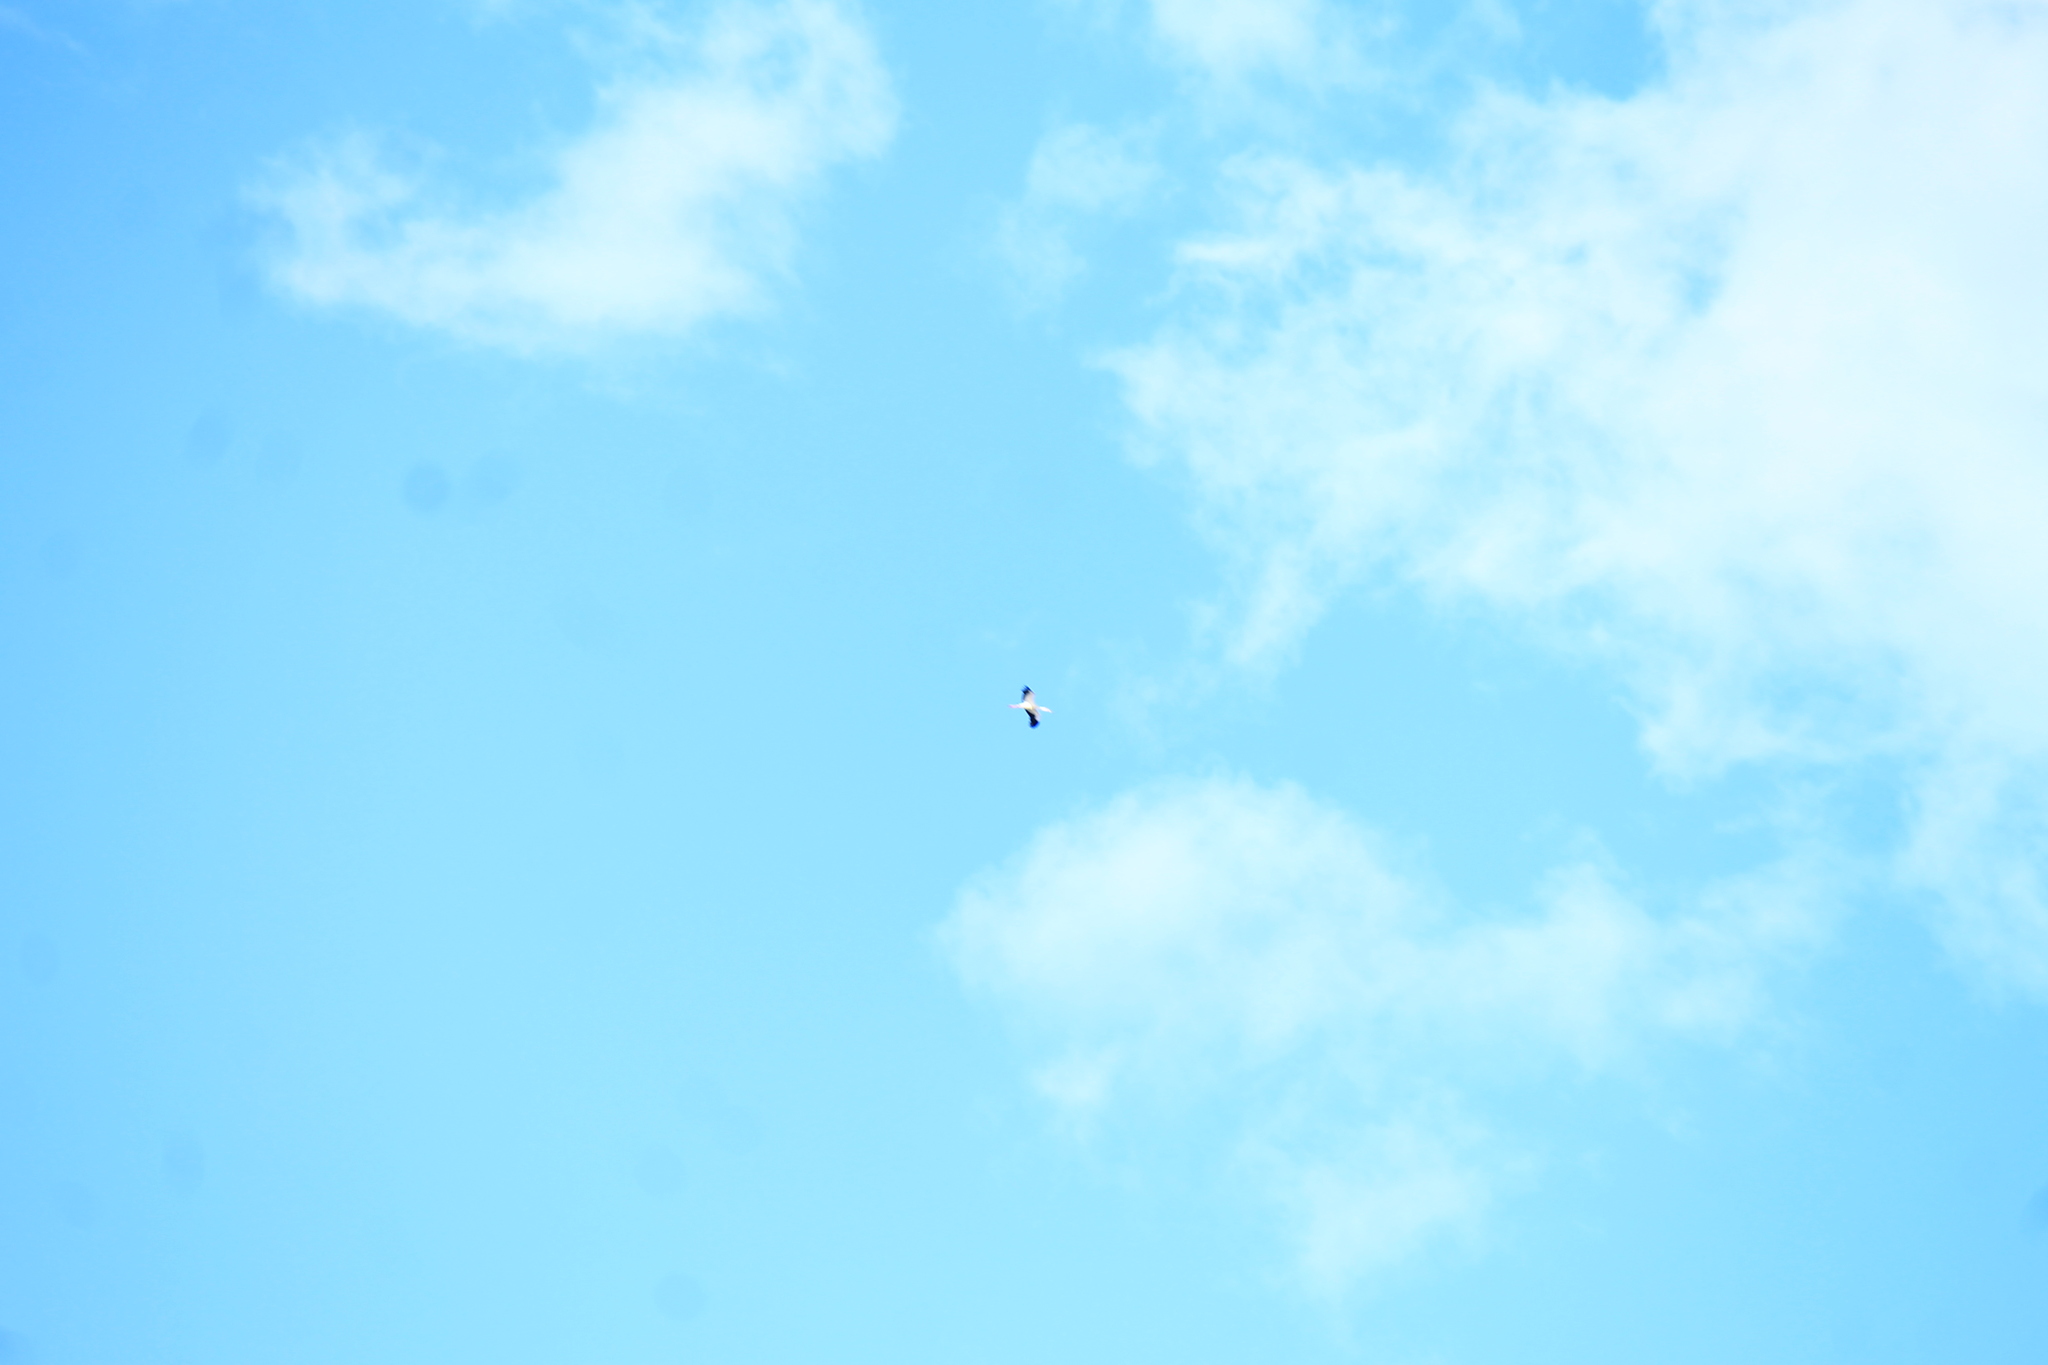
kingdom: Animalia
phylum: Chordata
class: Aves
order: Ciconiiformes
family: Ciconiidae
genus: Ciconia
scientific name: Ciconia maguari
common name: Maguari stork
